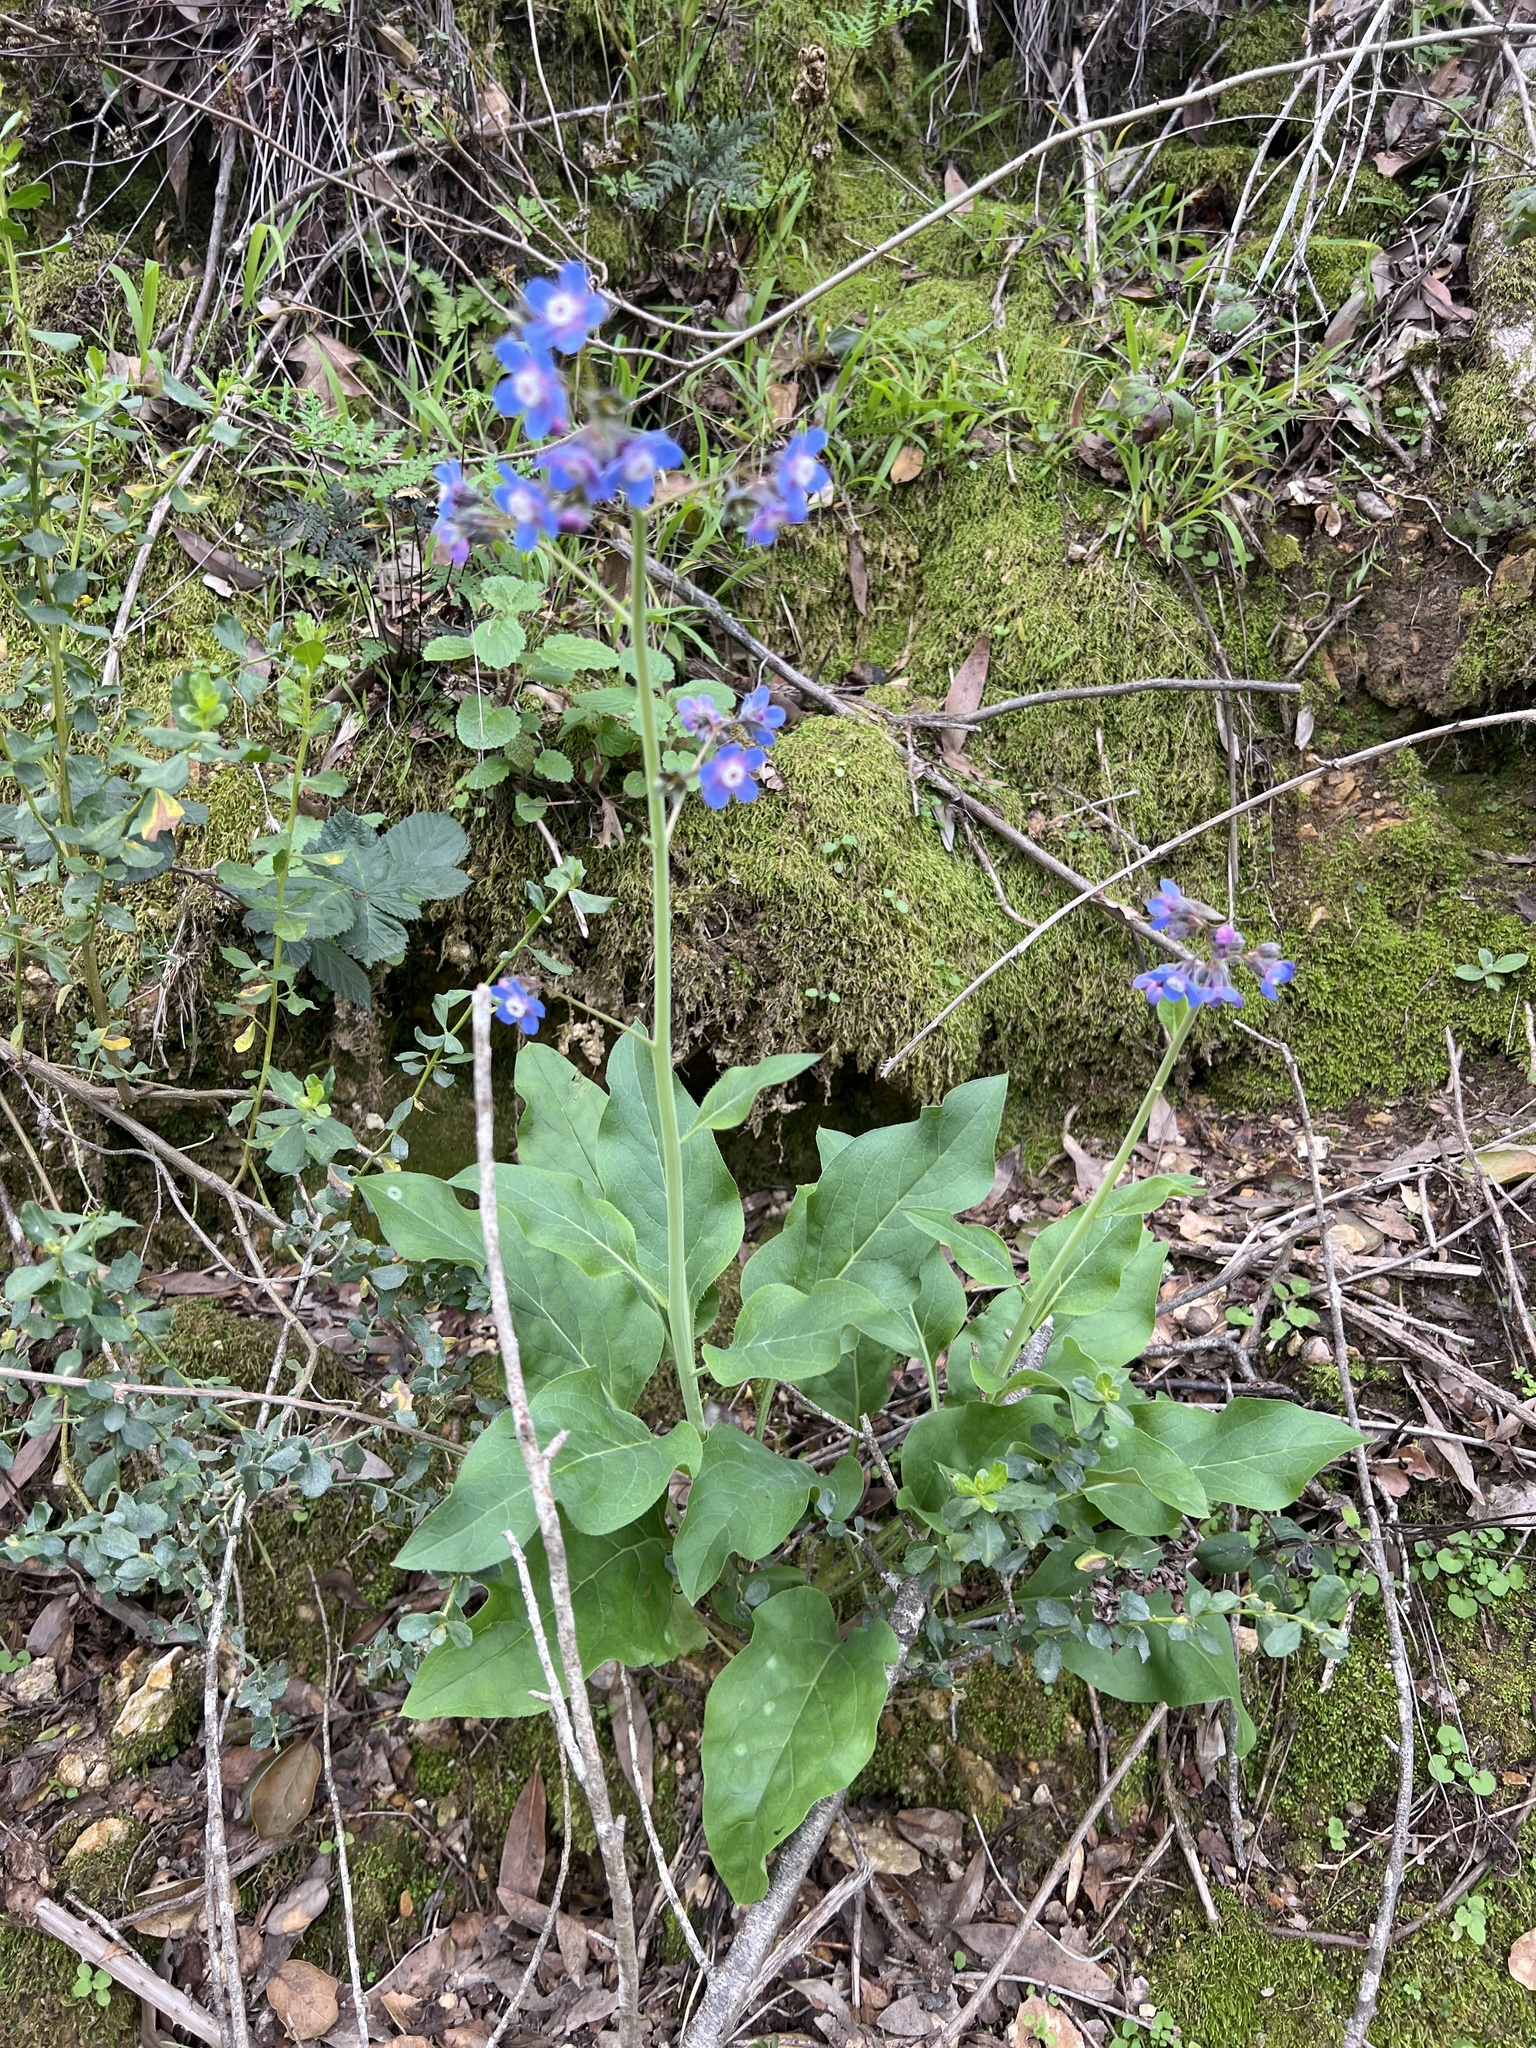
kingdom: Plantae
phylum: Tracheophyta
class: Magnoliopsida
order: Boraginales
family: Boraginaceae
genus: Adelinia
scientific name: Adelinia grande
